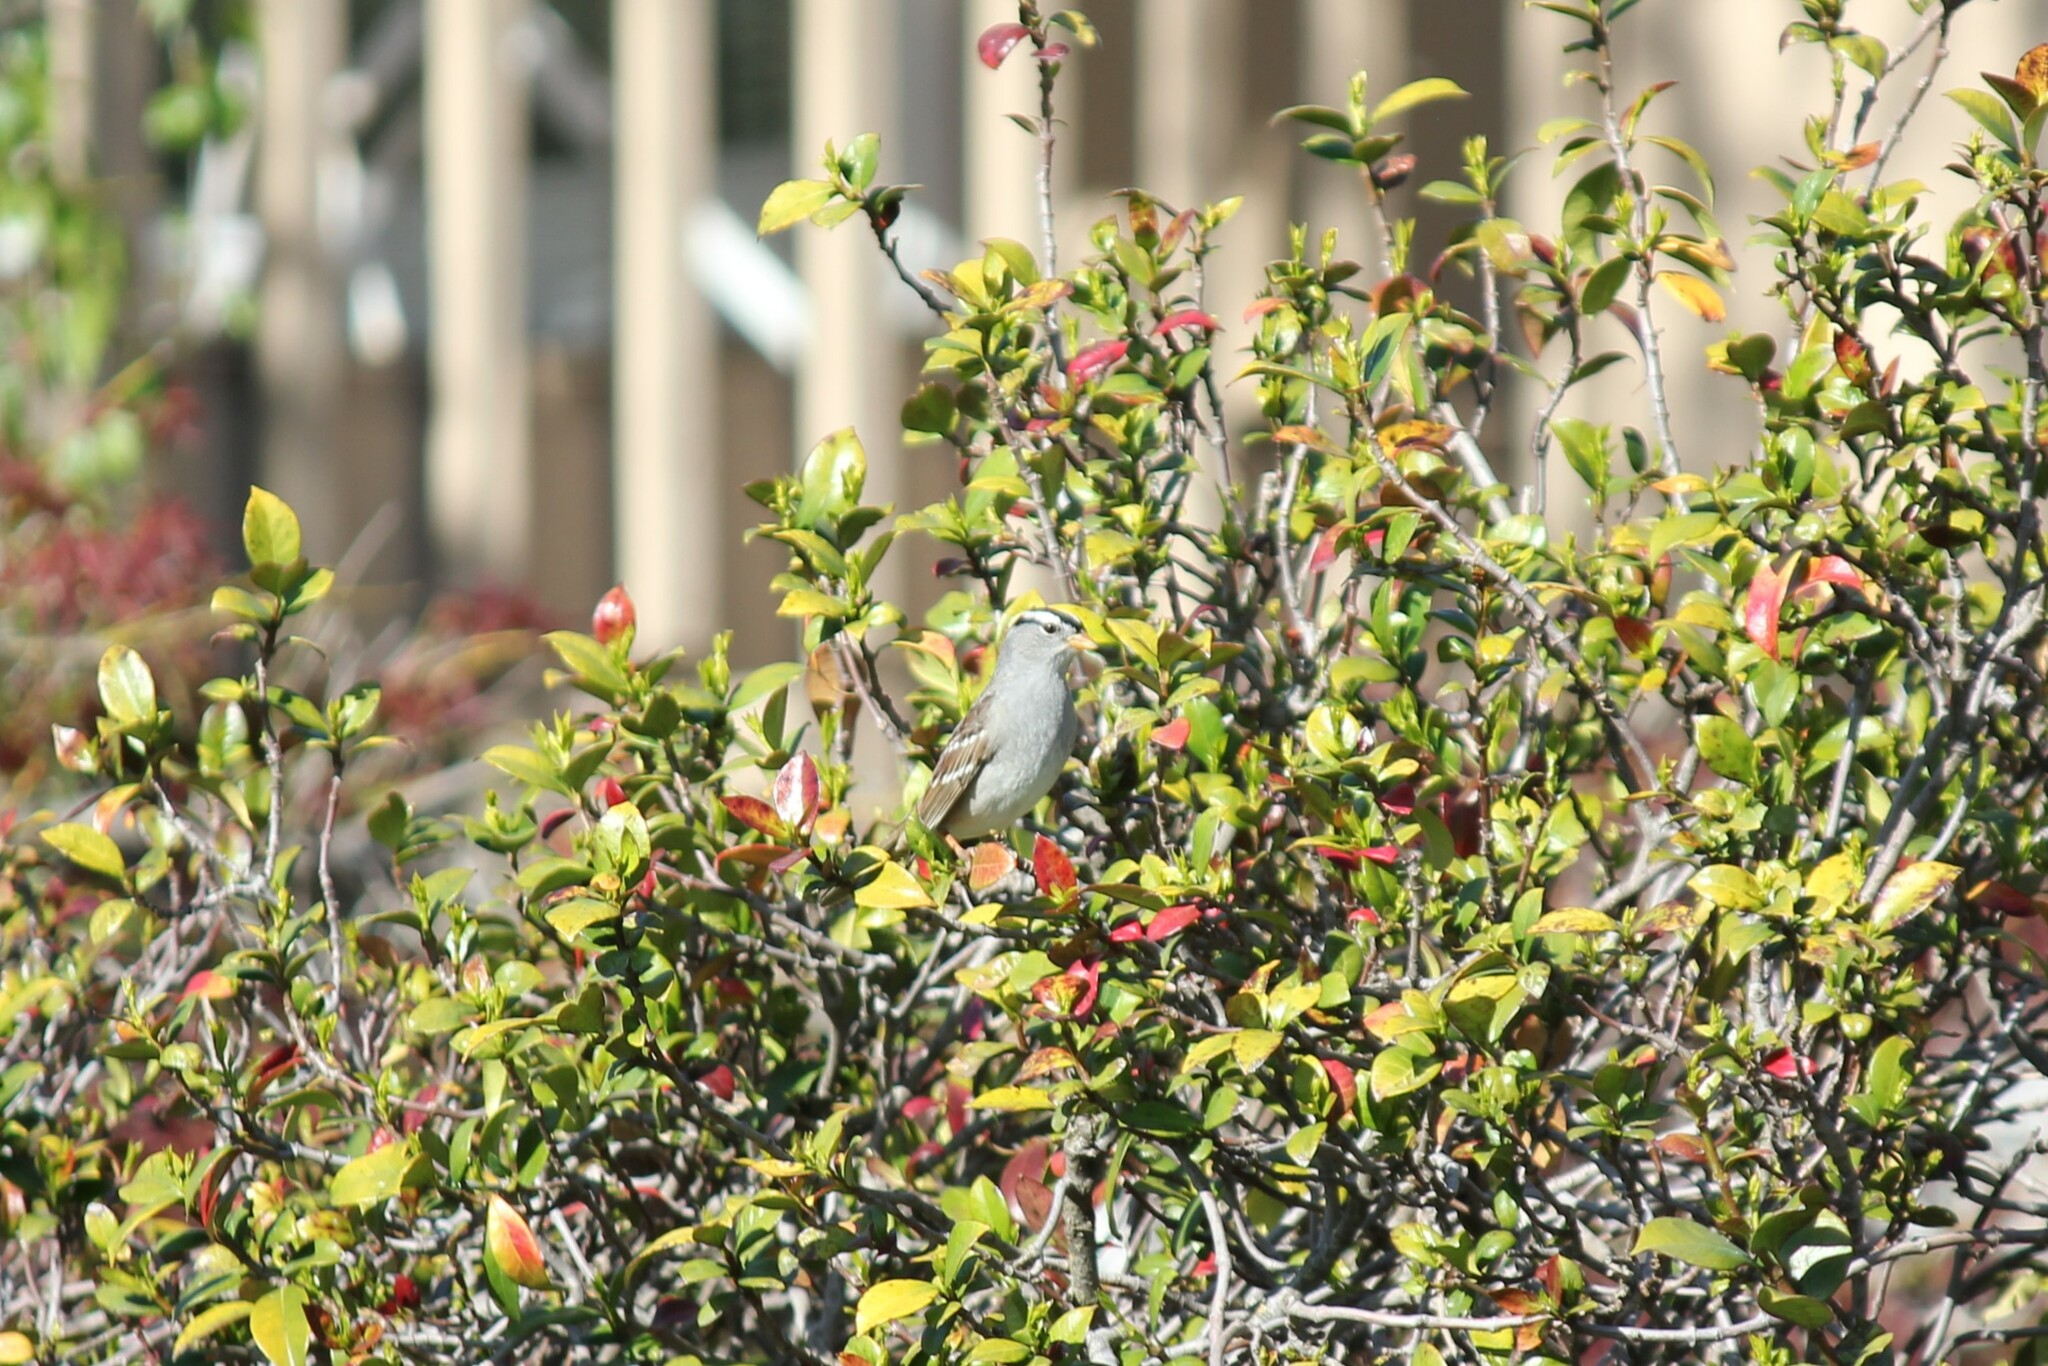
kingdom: Animalia
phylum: Chordata
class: Aves
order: Passeriformes
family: Passerellidae
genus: Zonotrichia
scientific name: Zonotrichia leucophrys
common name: White-crowned sparrow
